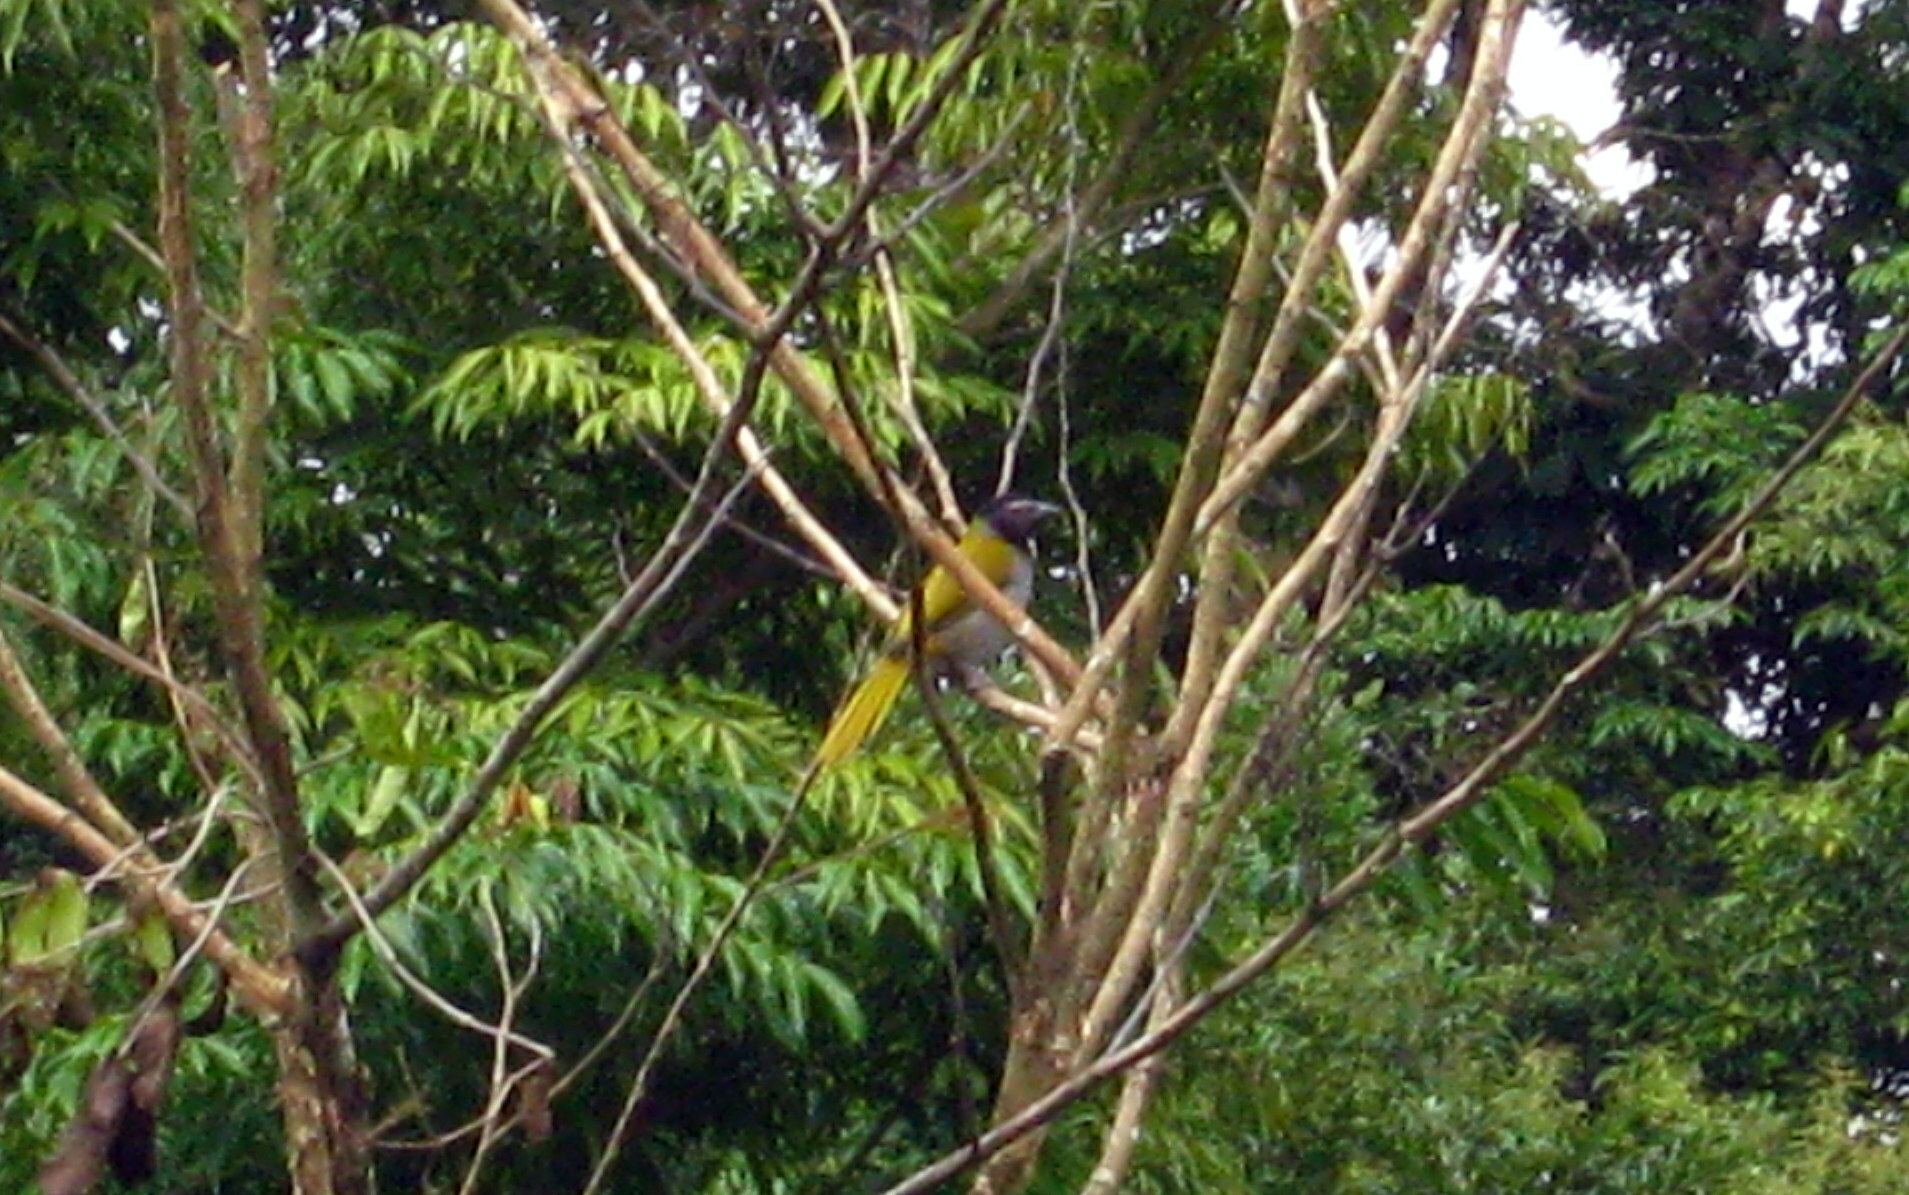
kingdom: Animalia
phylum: Chordata
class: Aves
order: Passeriformes
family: Thraupidae
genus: Saltator
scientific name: Saltator atriceps
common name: Black-headed saltator
